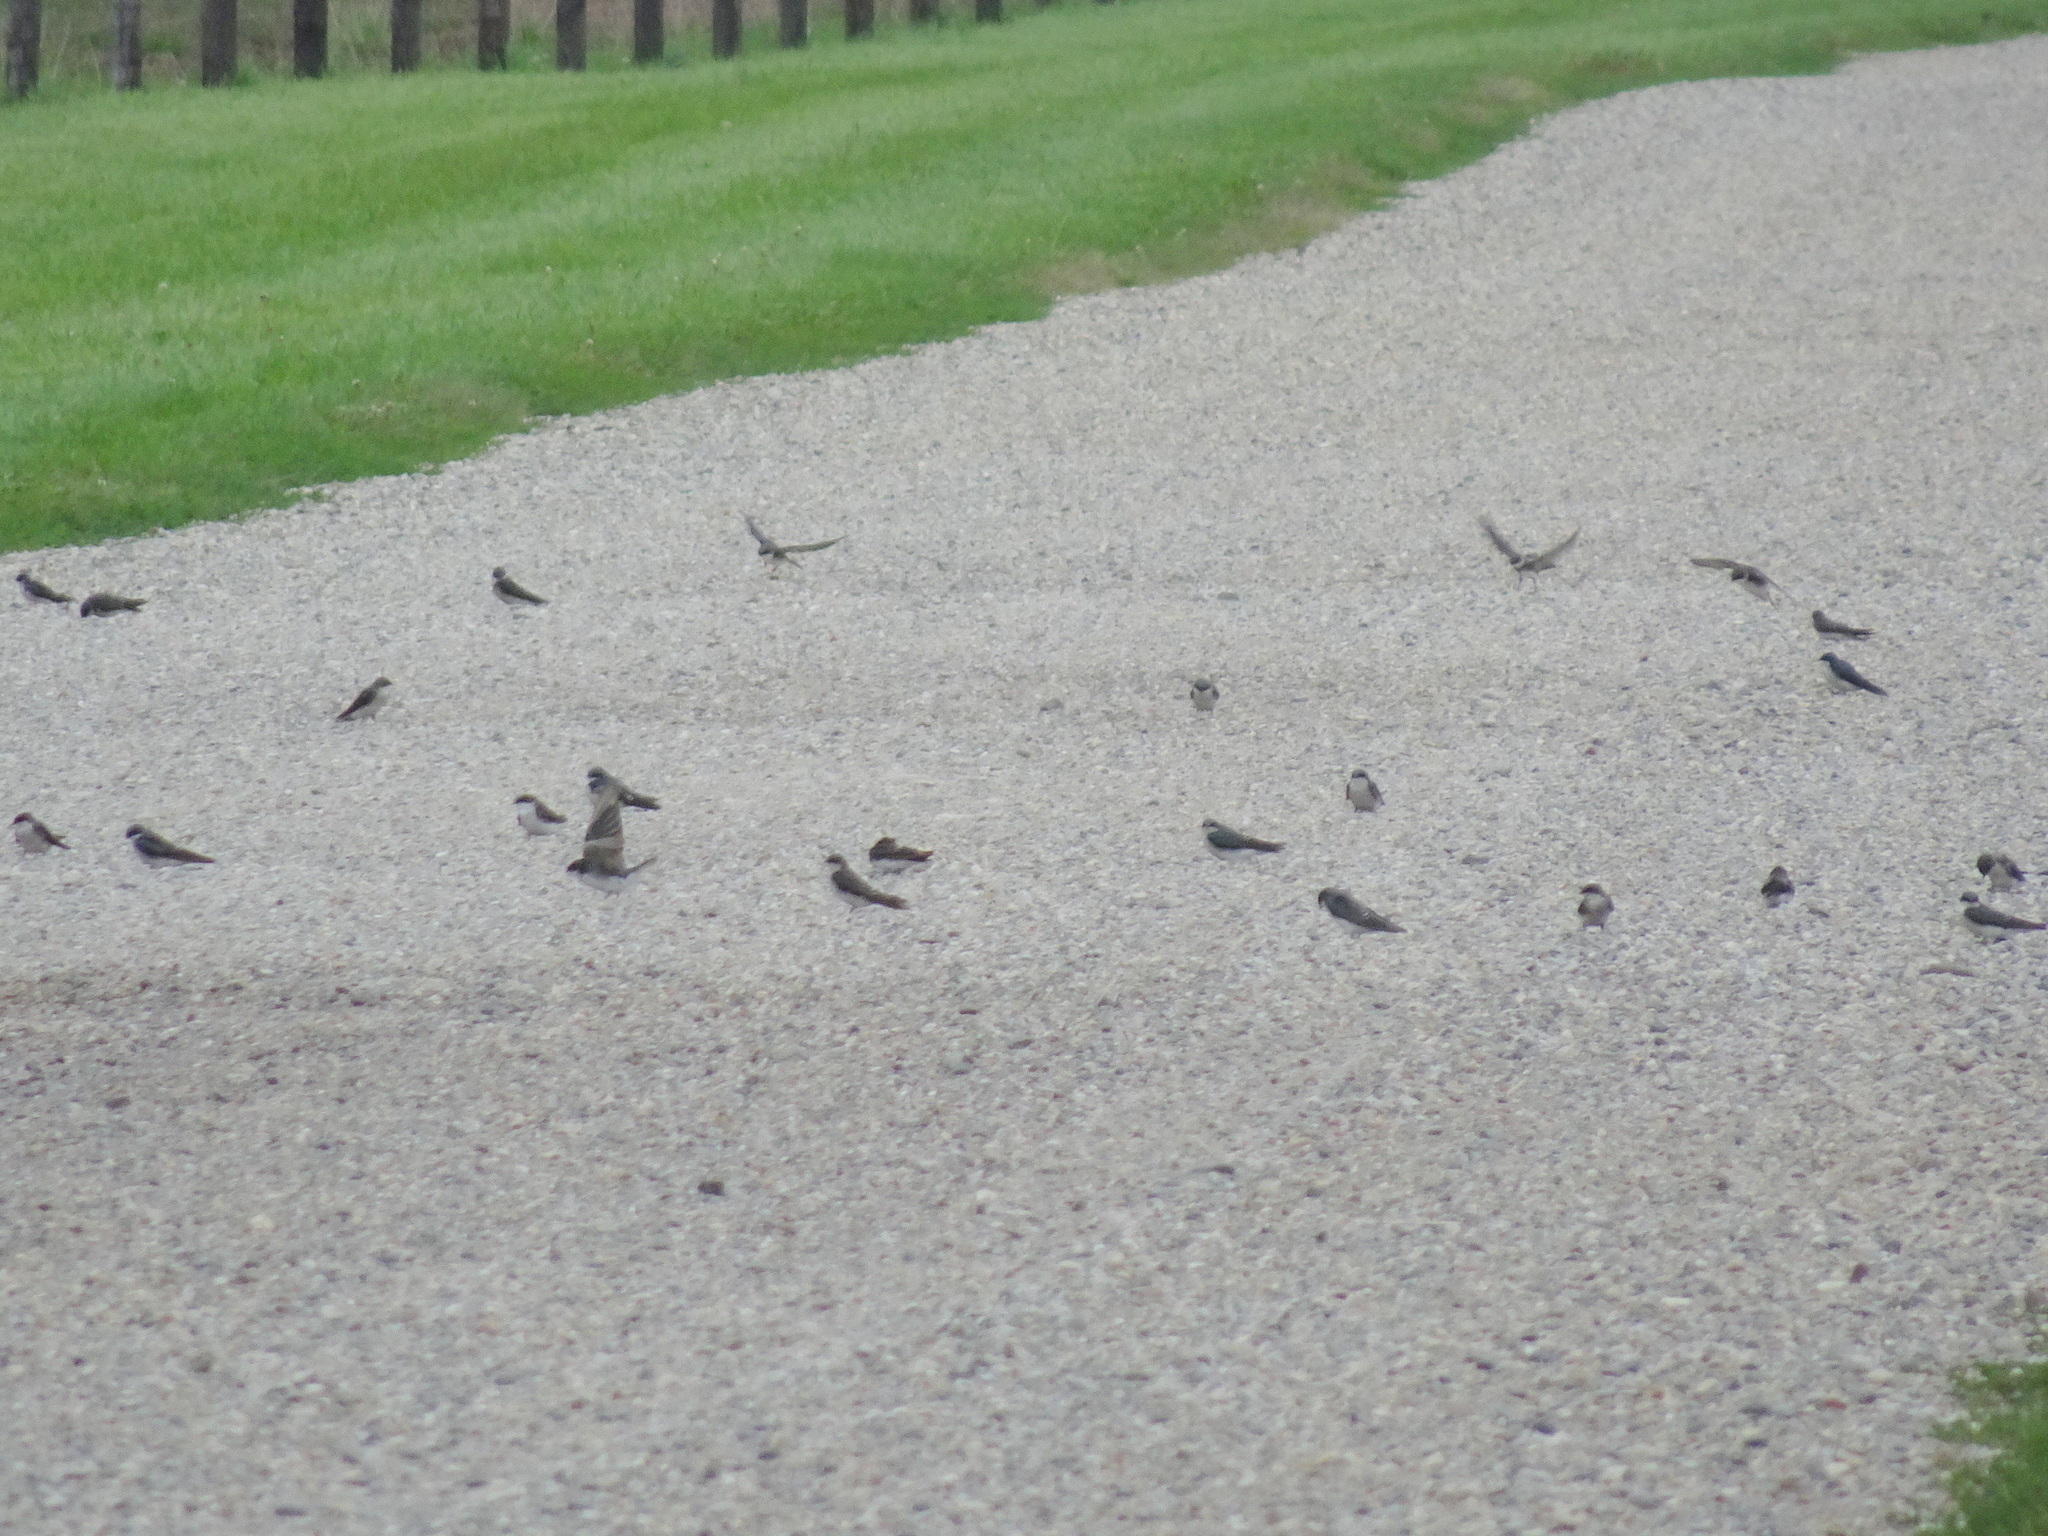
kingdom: Animalia
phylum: Chordata
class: Aves
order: Passeriformes
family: Hirundinidae
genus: Tachycineta
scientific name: Tachycineta bicolor
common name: Tree swallow
